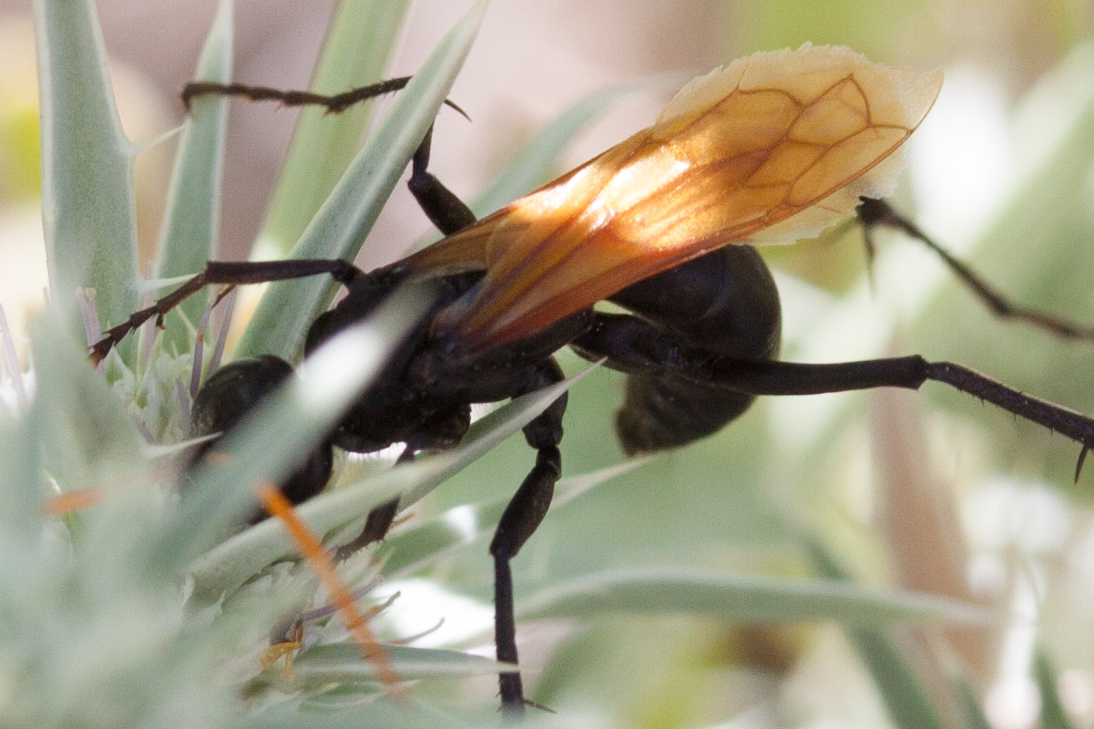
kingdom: Animalia
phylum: Arthropoda
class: Insecta
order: Hymenoptera
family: Pompilidae
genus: Entypus
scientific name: Entypus unifasciatus
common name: Eastern tawny-horned spider wasp
